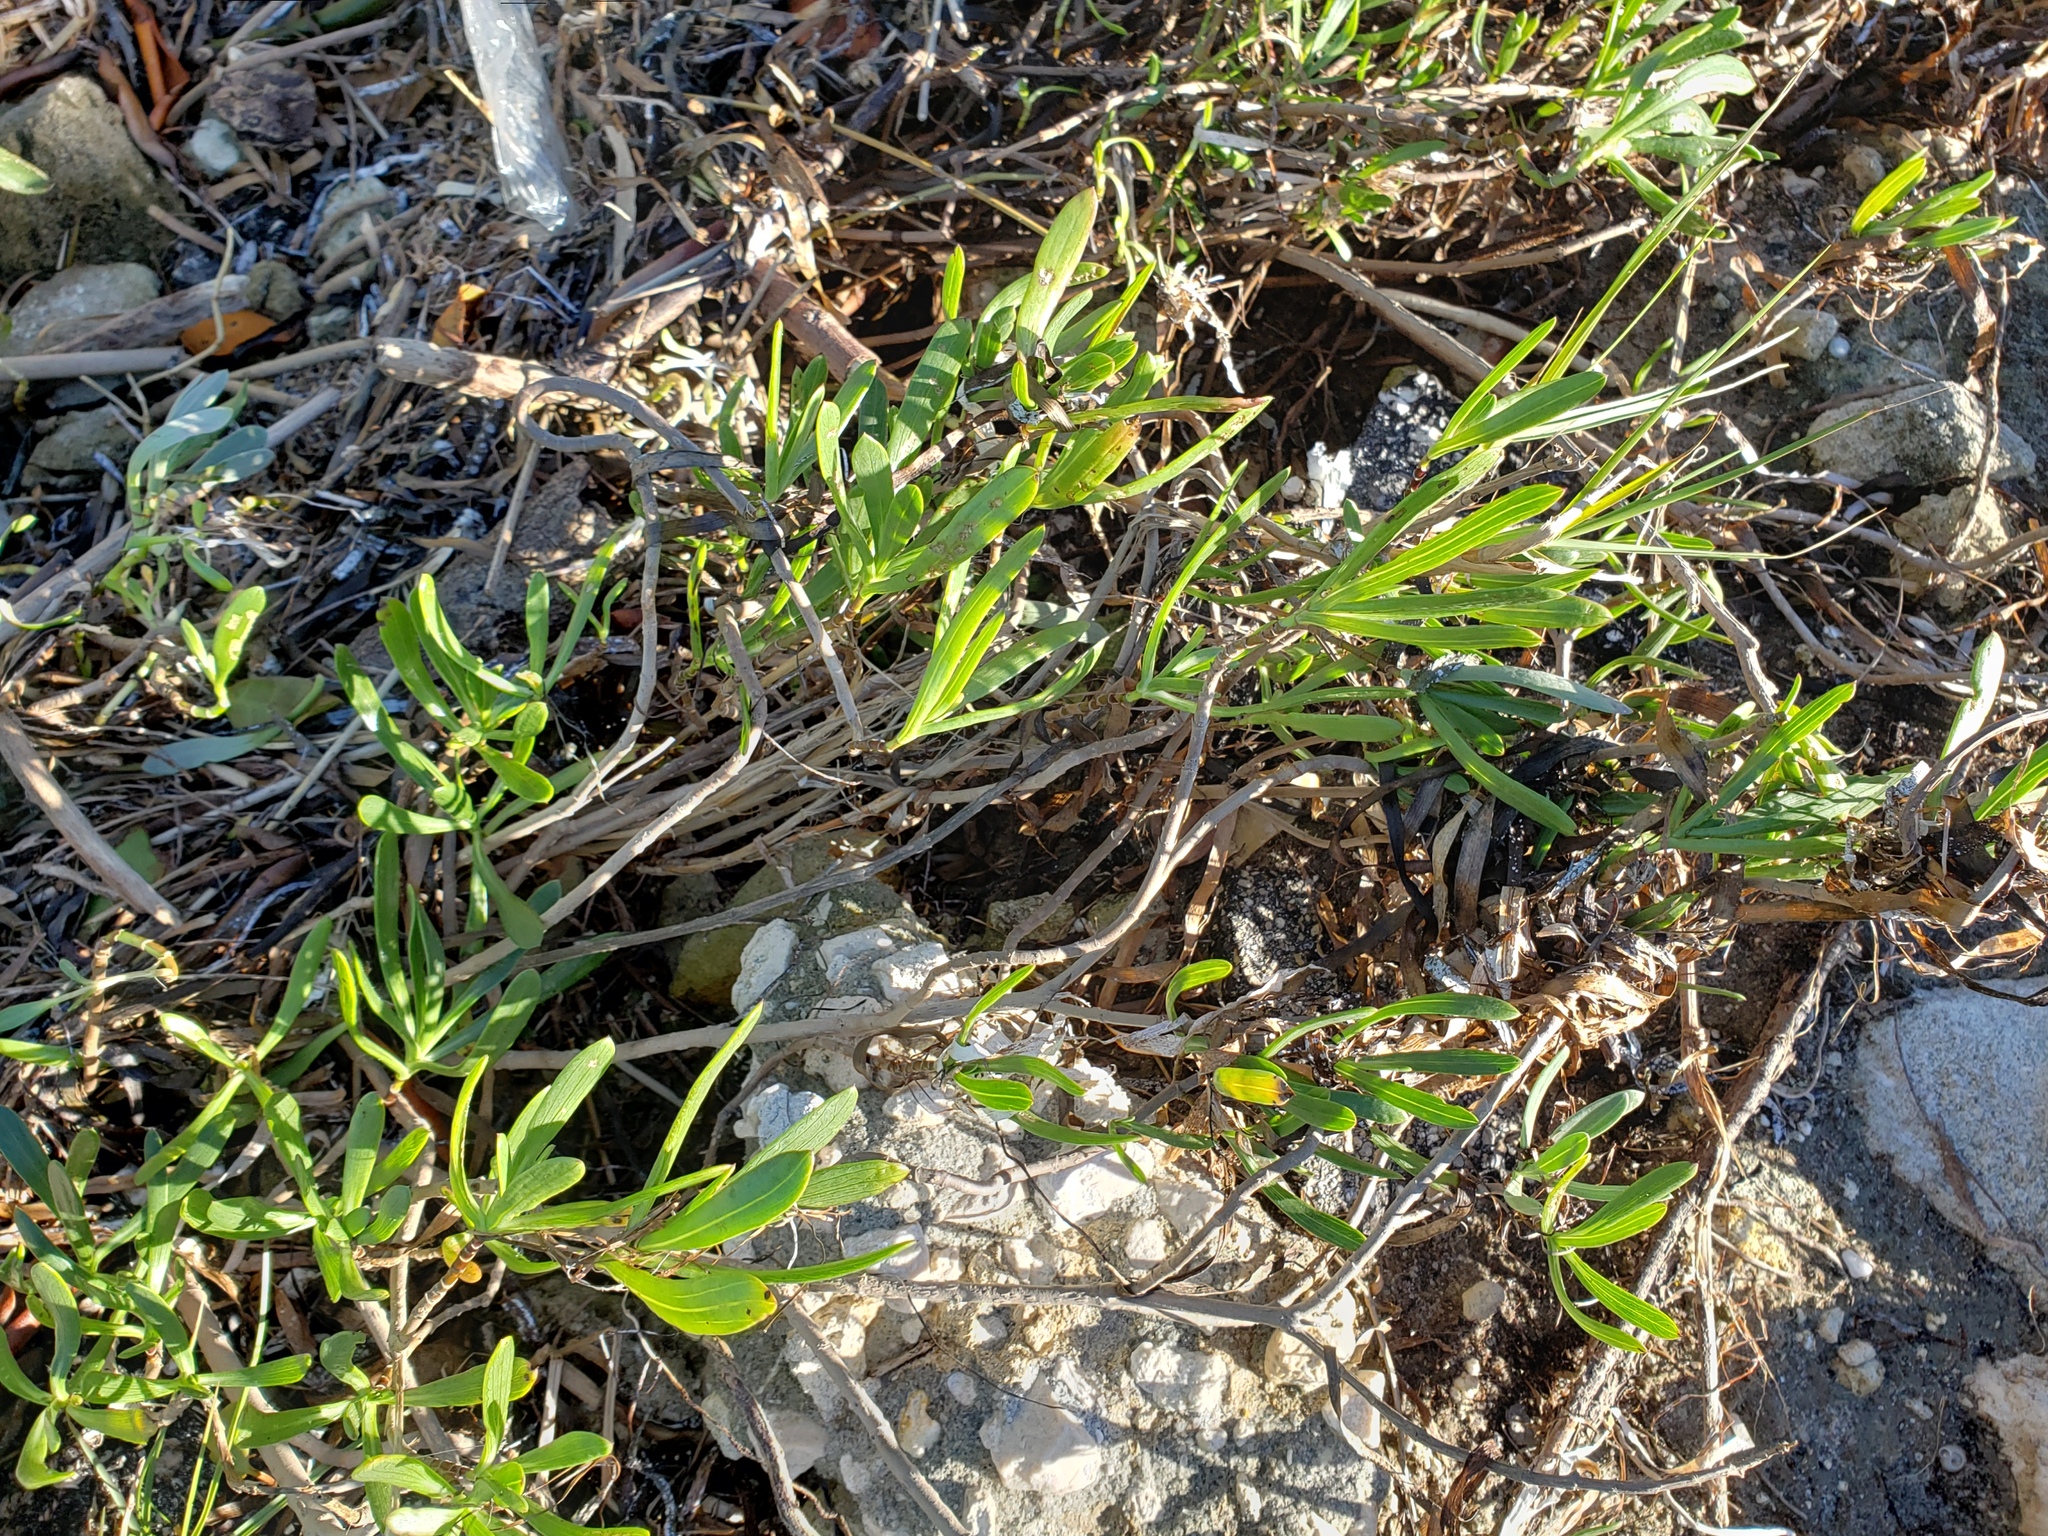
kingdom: Plantae
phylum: Tracheophyta
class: Magnoliopsida
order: Asterales
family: Asteraceae
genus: Borrichia
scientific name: Borrichia frutescens
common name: Sea oxeye
